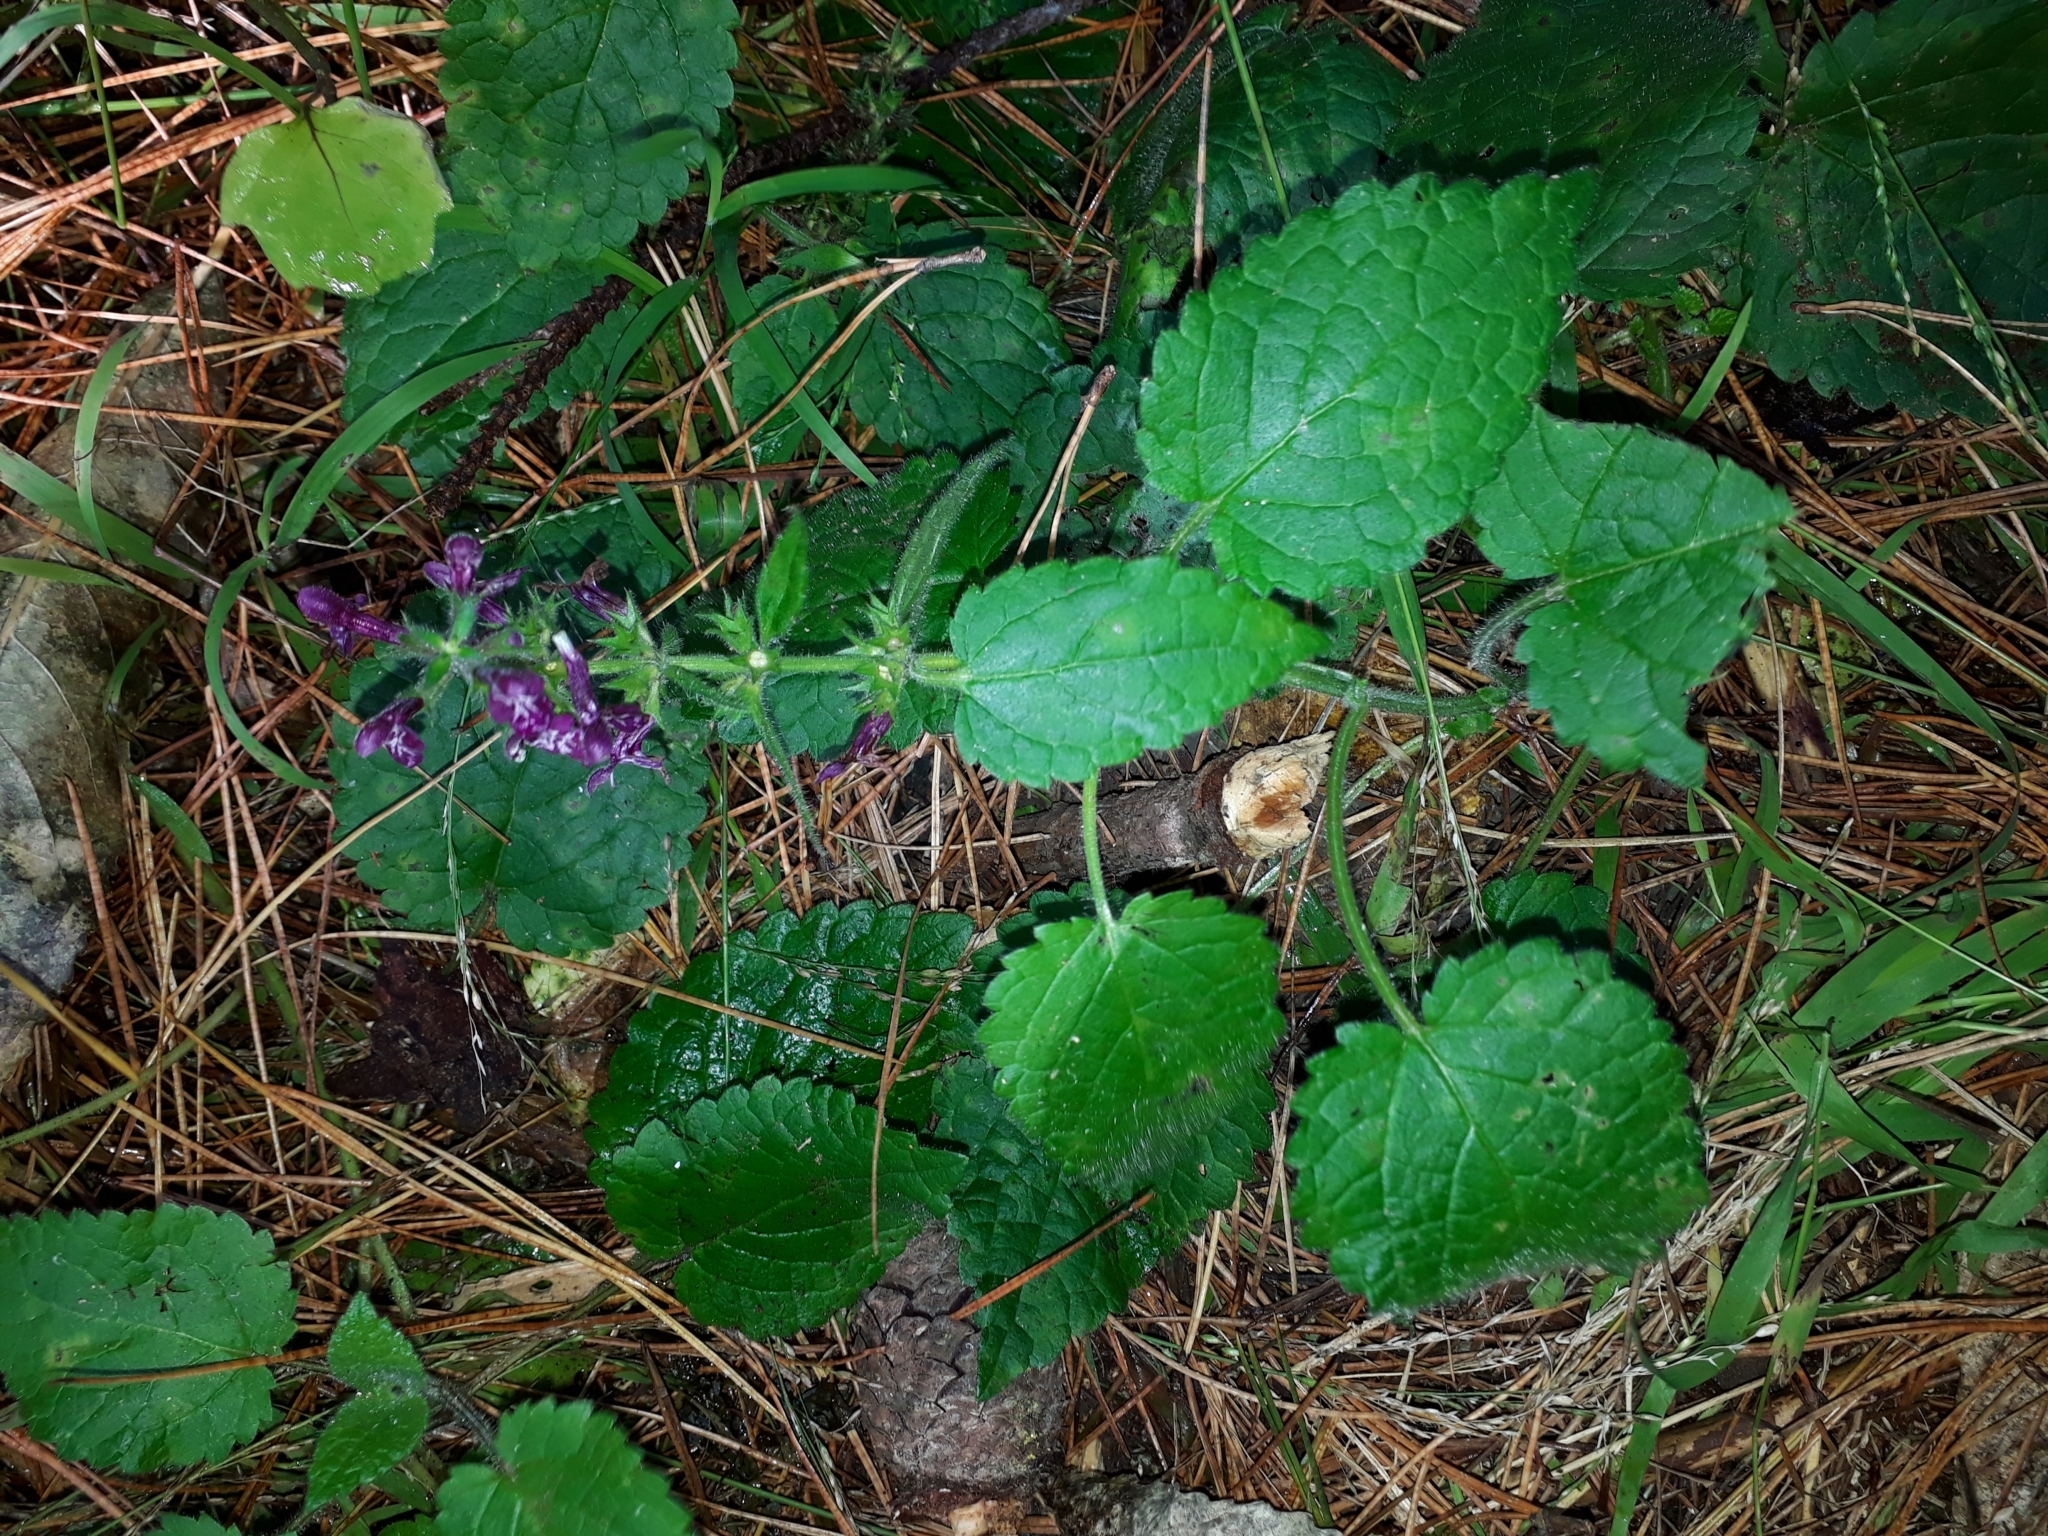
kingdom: Plantae
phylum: Tracheophyta
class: Magnoliopsida
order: Lamiales
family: Lamiaceae
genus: Stachys
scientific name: Stachys sylvatica
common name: Hedge woundwort
